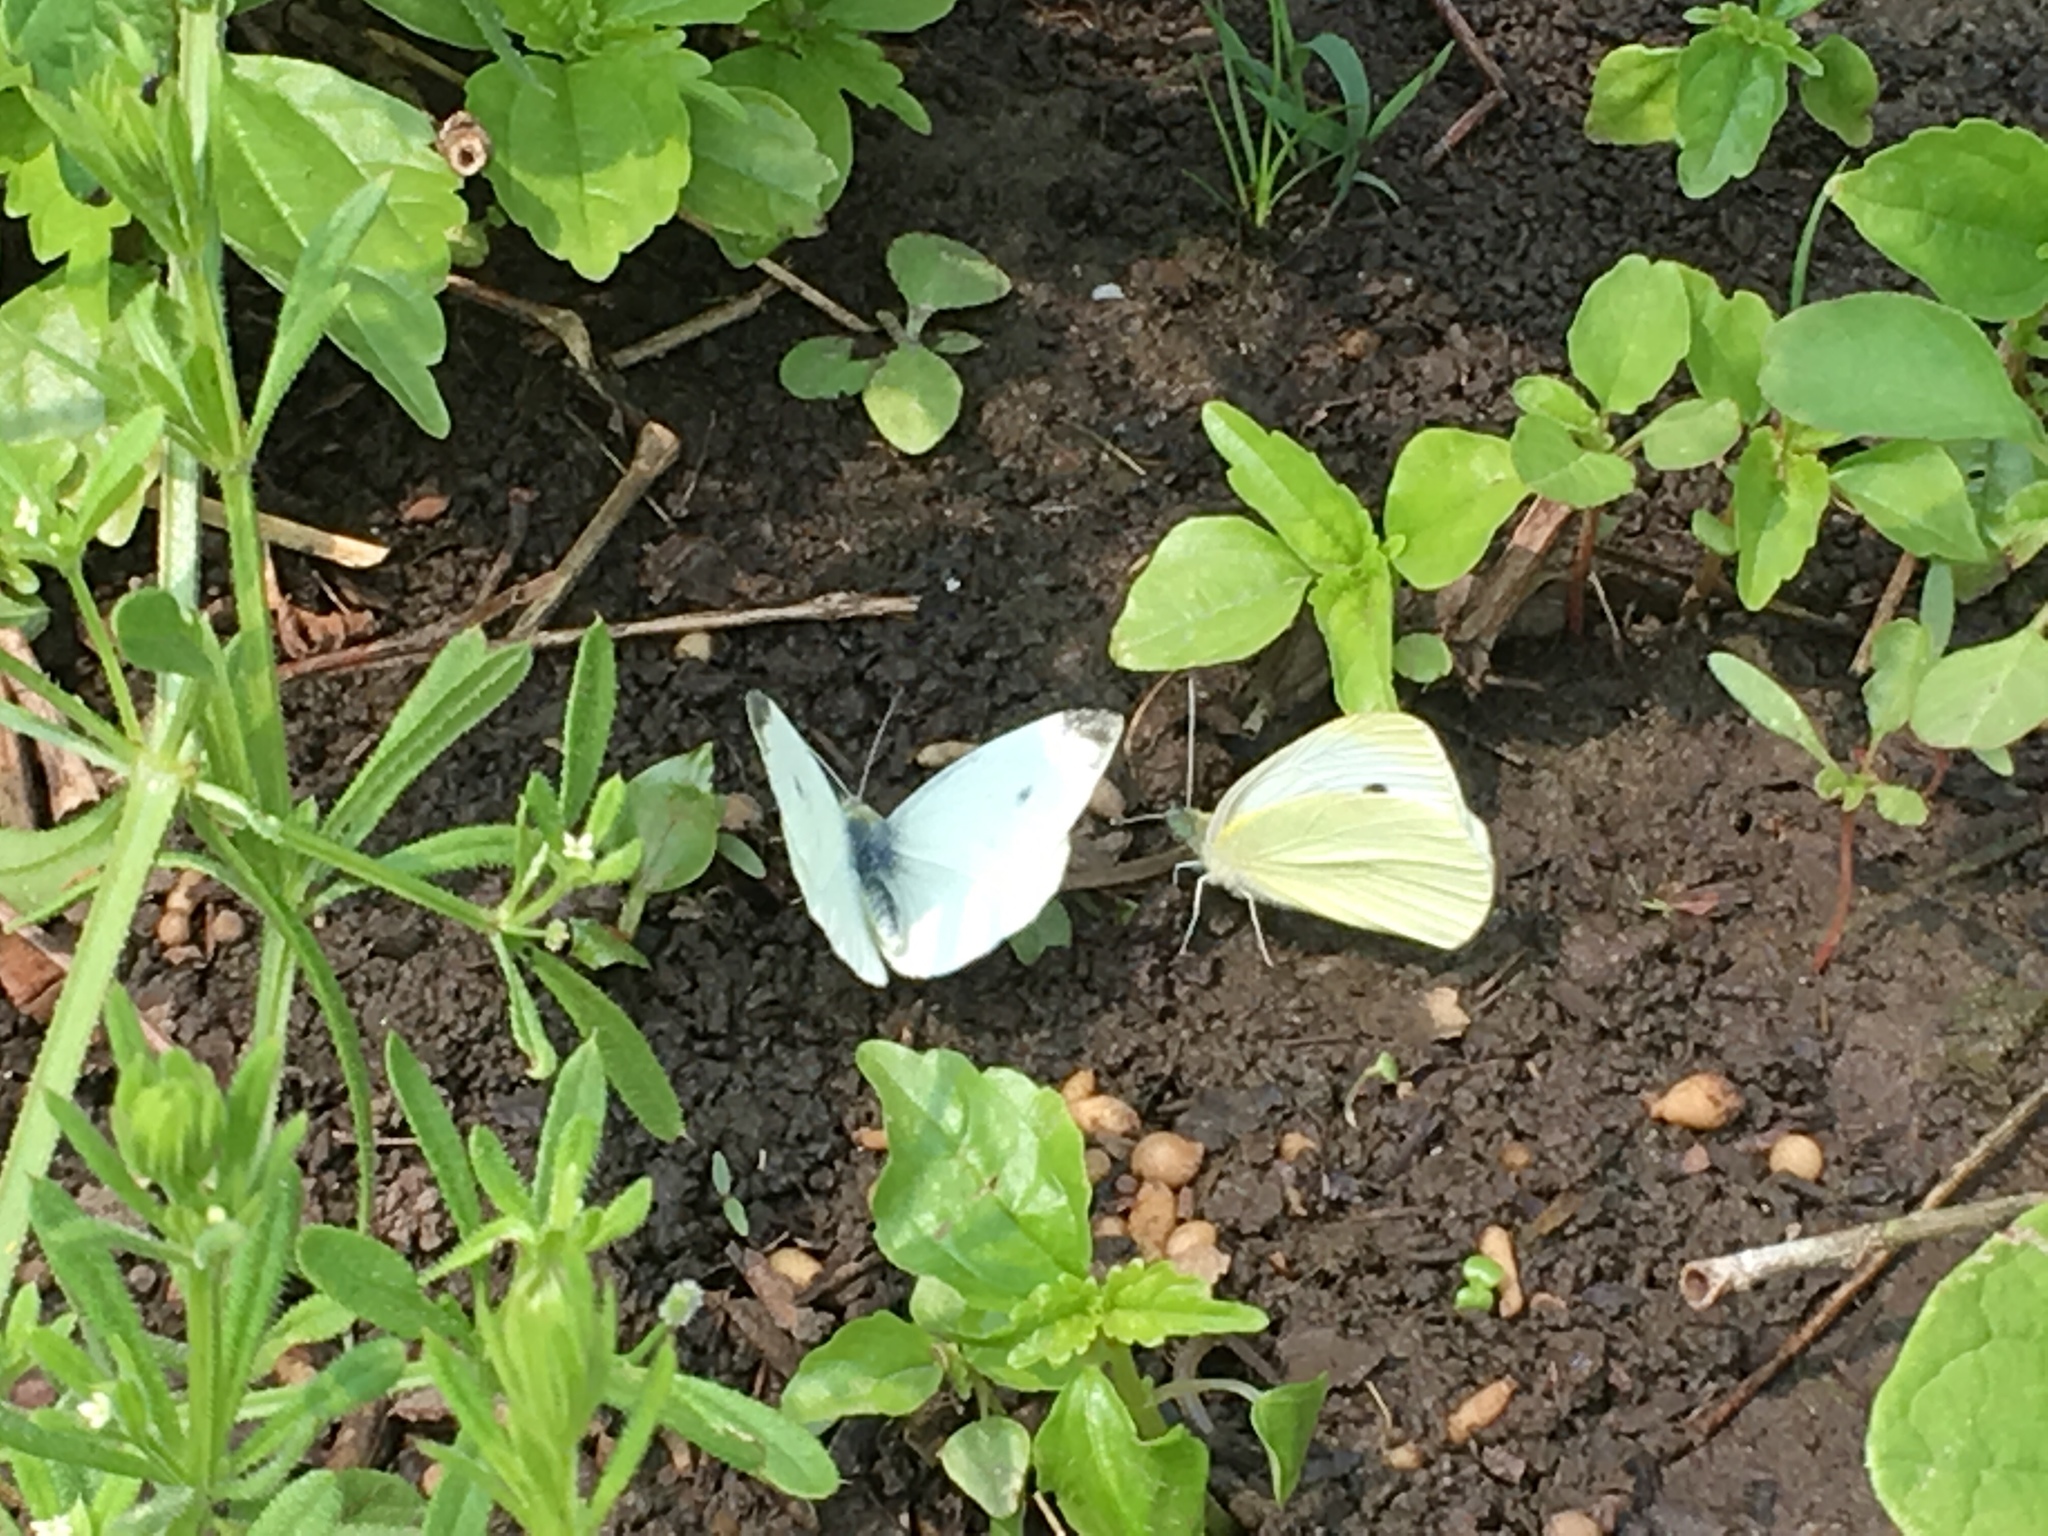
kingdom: Animalia
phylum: Arthropoda
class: Insecta
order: Lepidoptera
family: Pieridae
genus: Pieris
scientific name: Pieris rapae
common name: Small white
